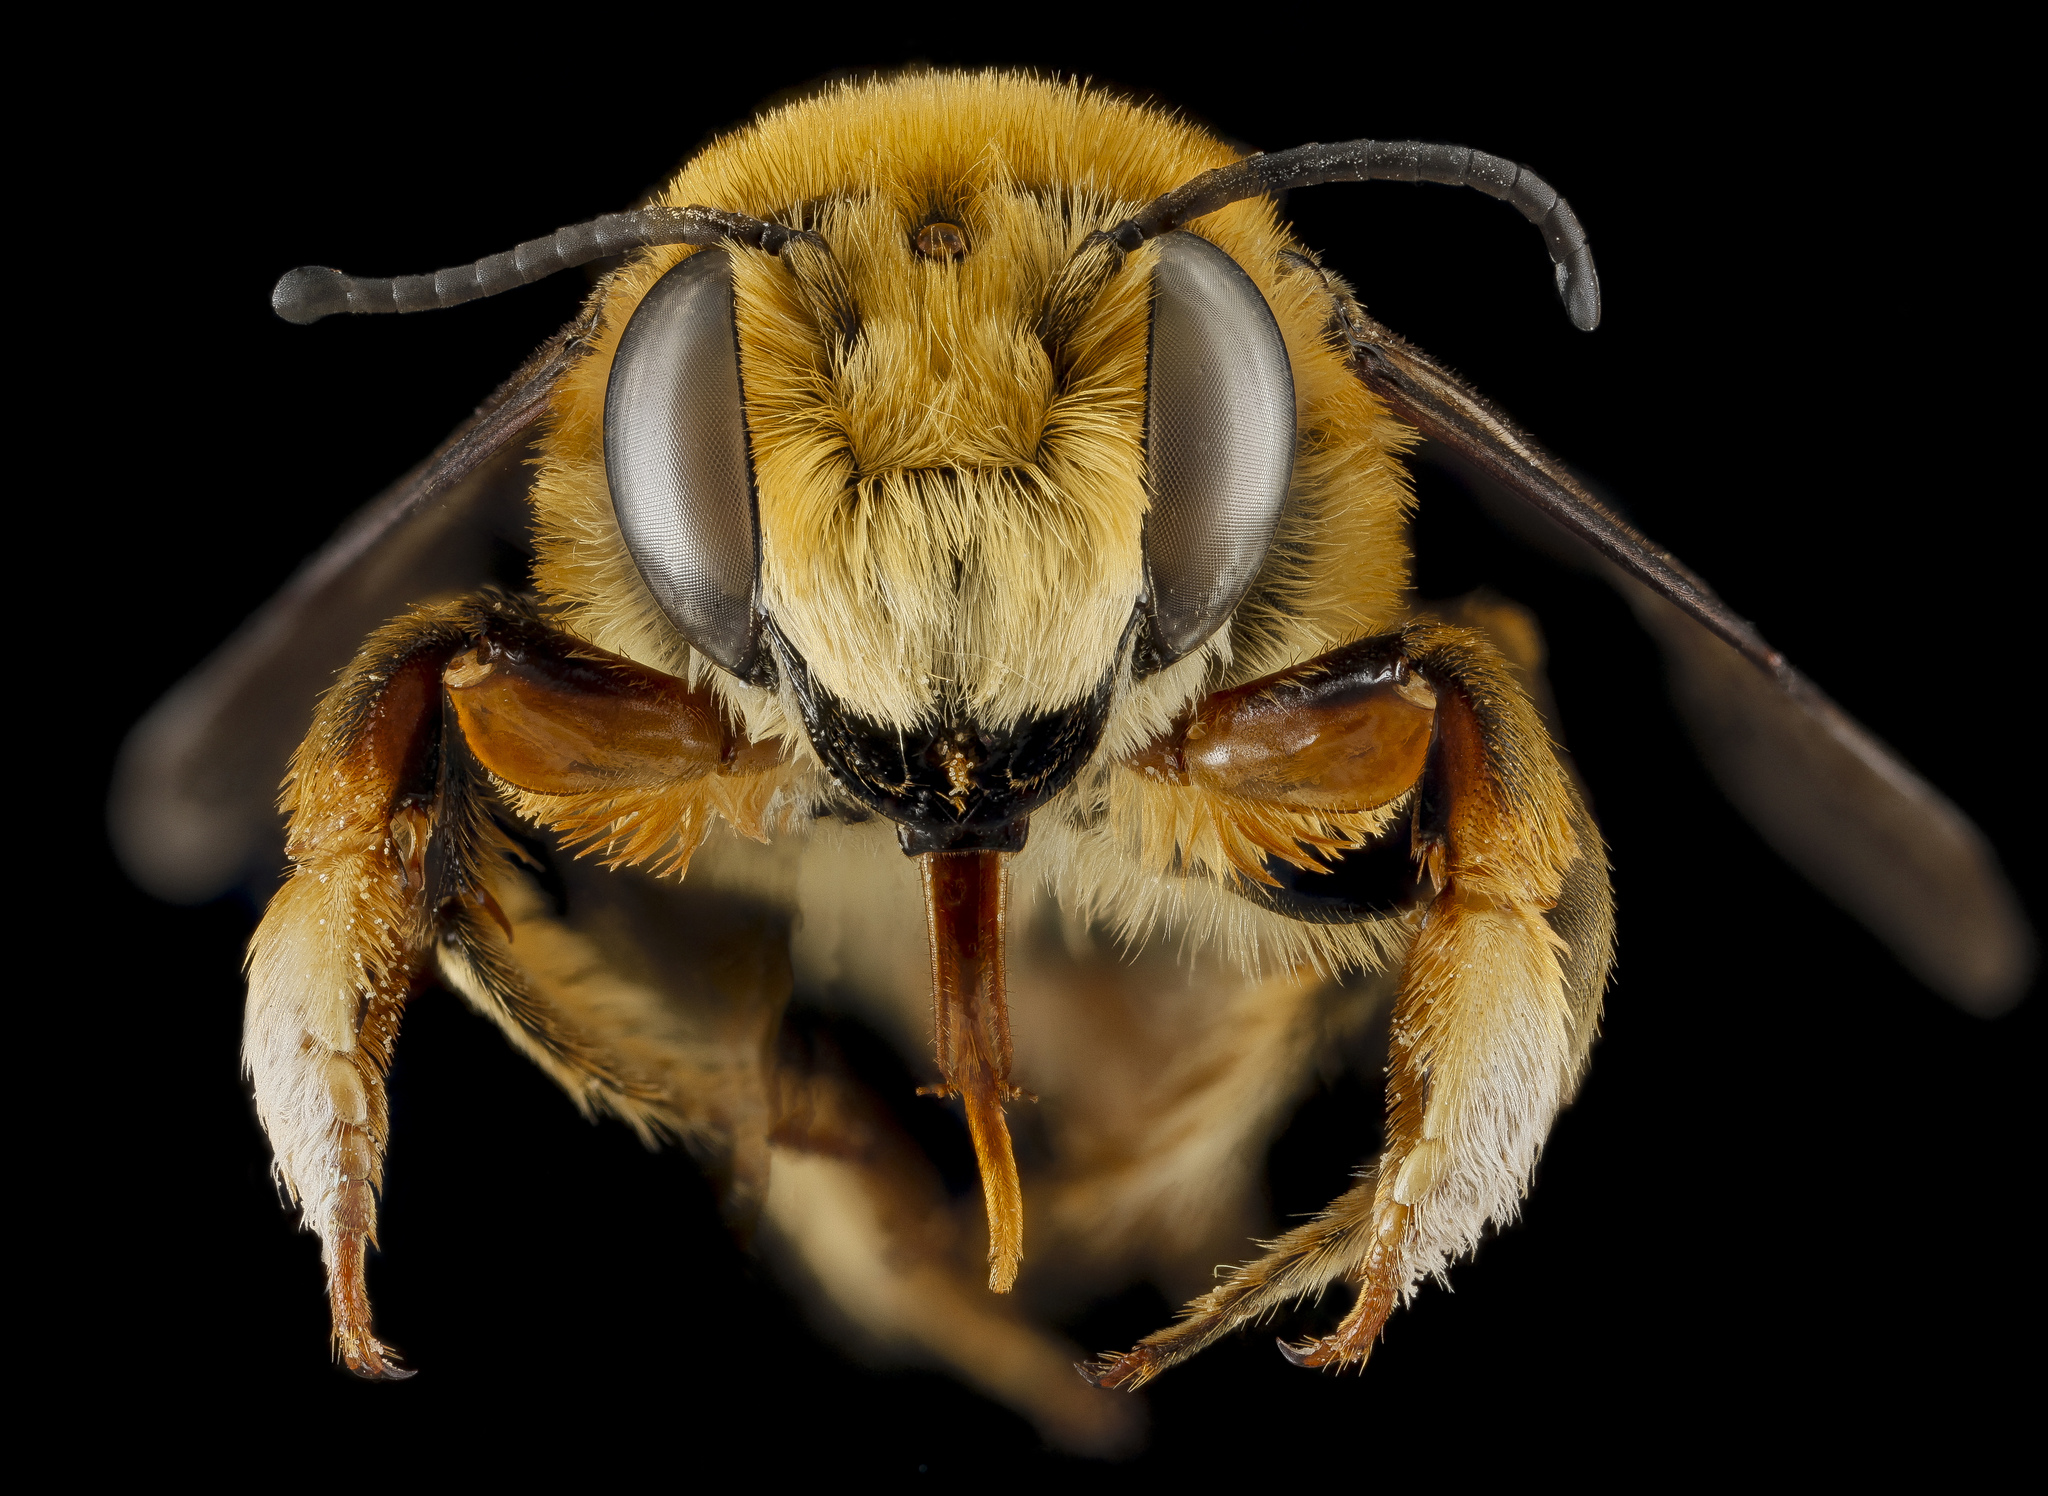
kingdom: Animalia
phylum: Arthropoda
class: Insecta
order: Hymenoptera
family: Megachilidae
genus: Megachile
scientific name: Megachile fortis
